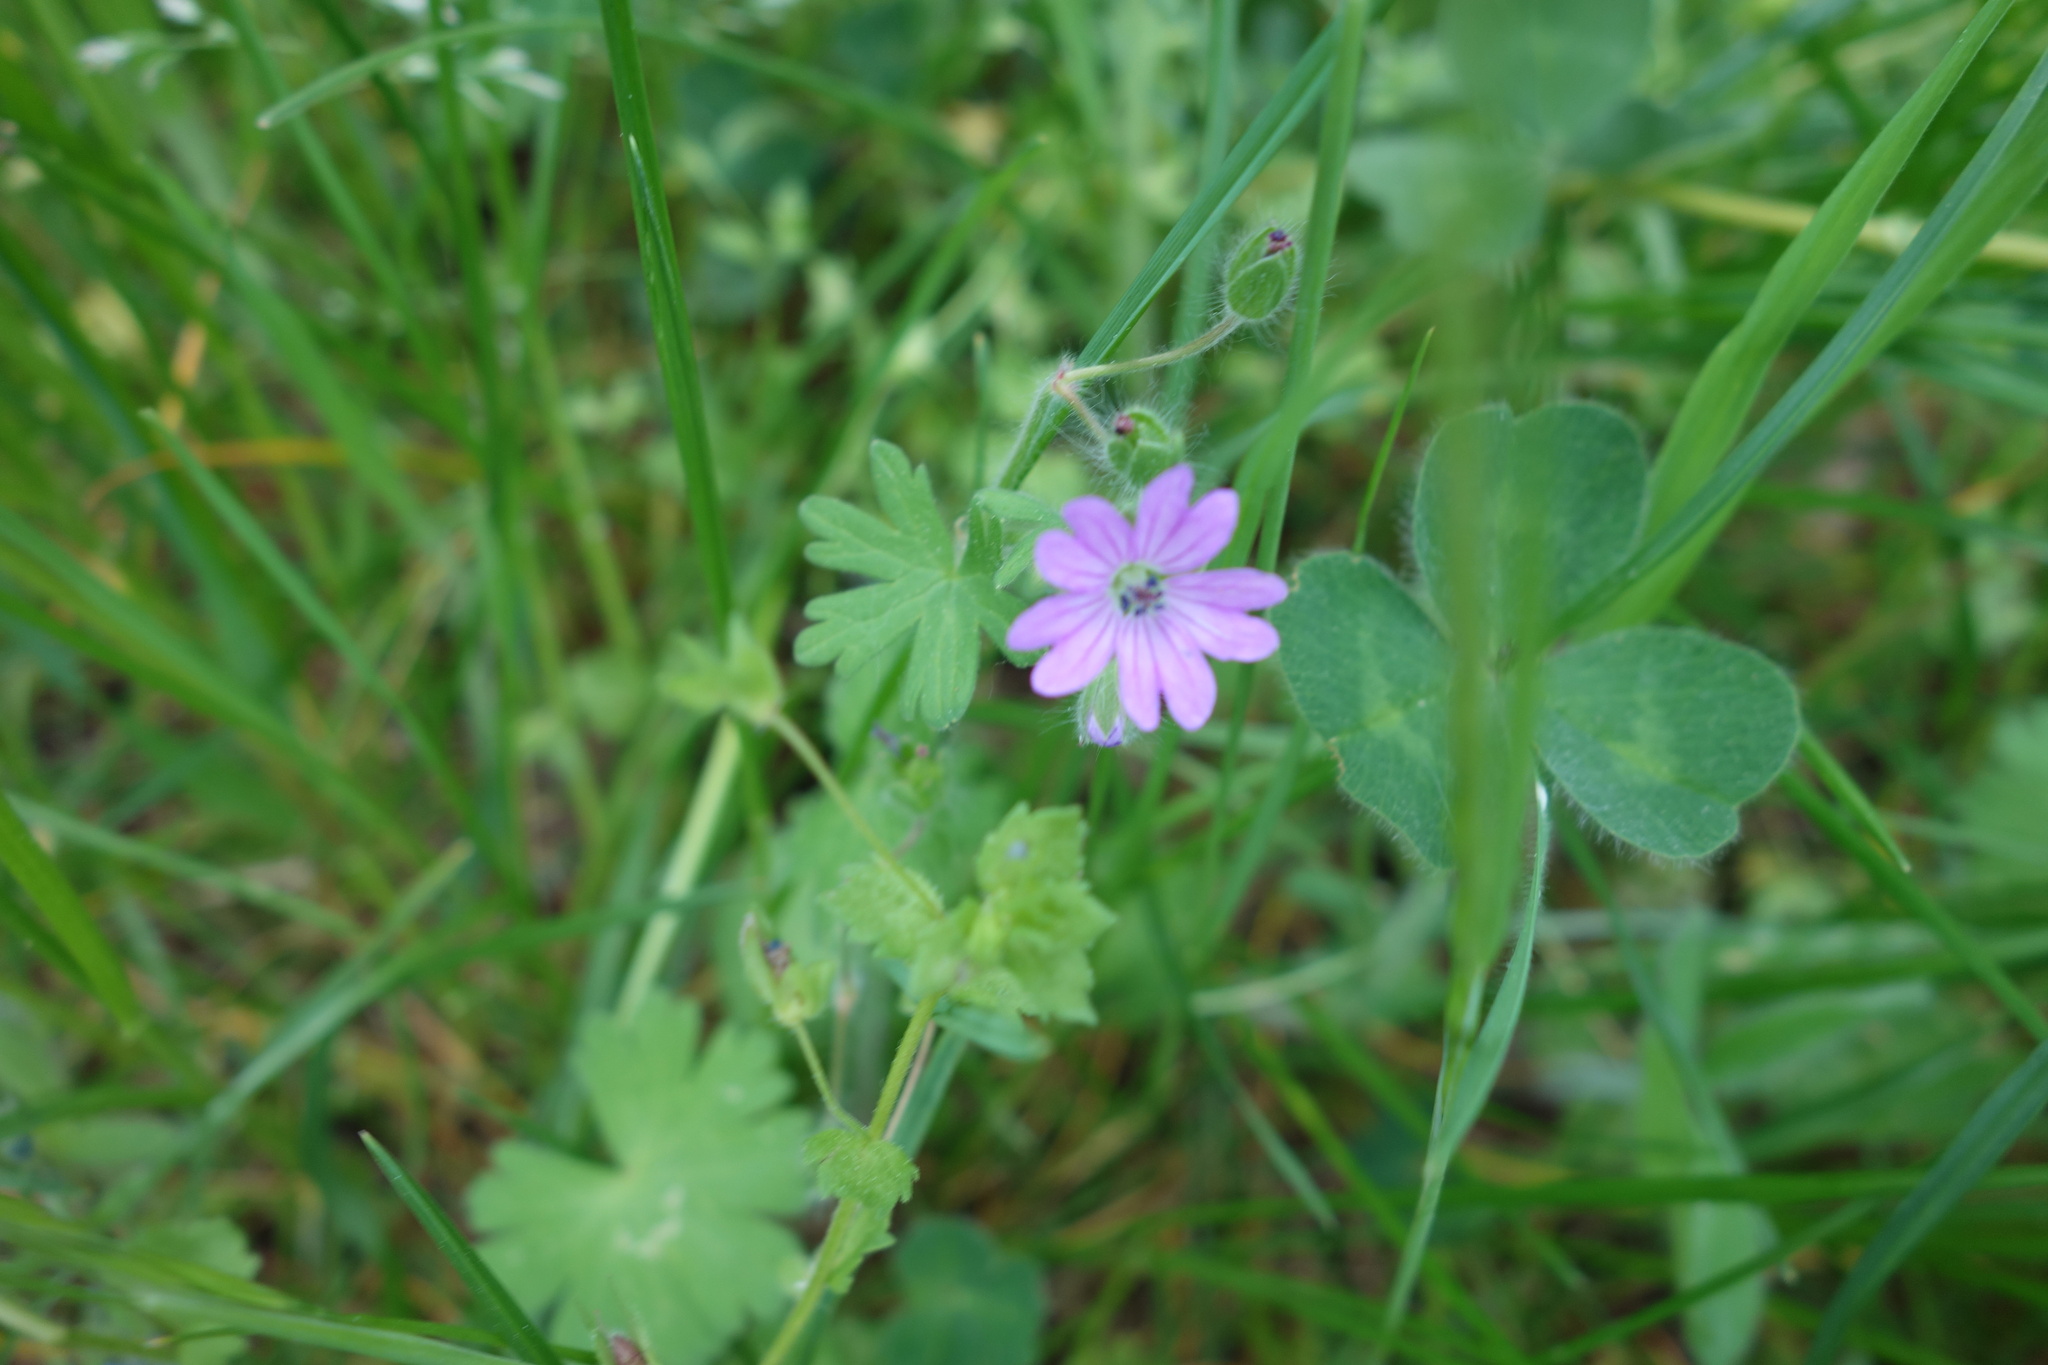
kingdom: Plantae
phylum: Tracheophyta
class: Magnoliopsida
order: Geraniales
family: Geraniaceae
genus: Geranium
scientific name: Geranium molle
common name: Dove's-foot crane's-bill
